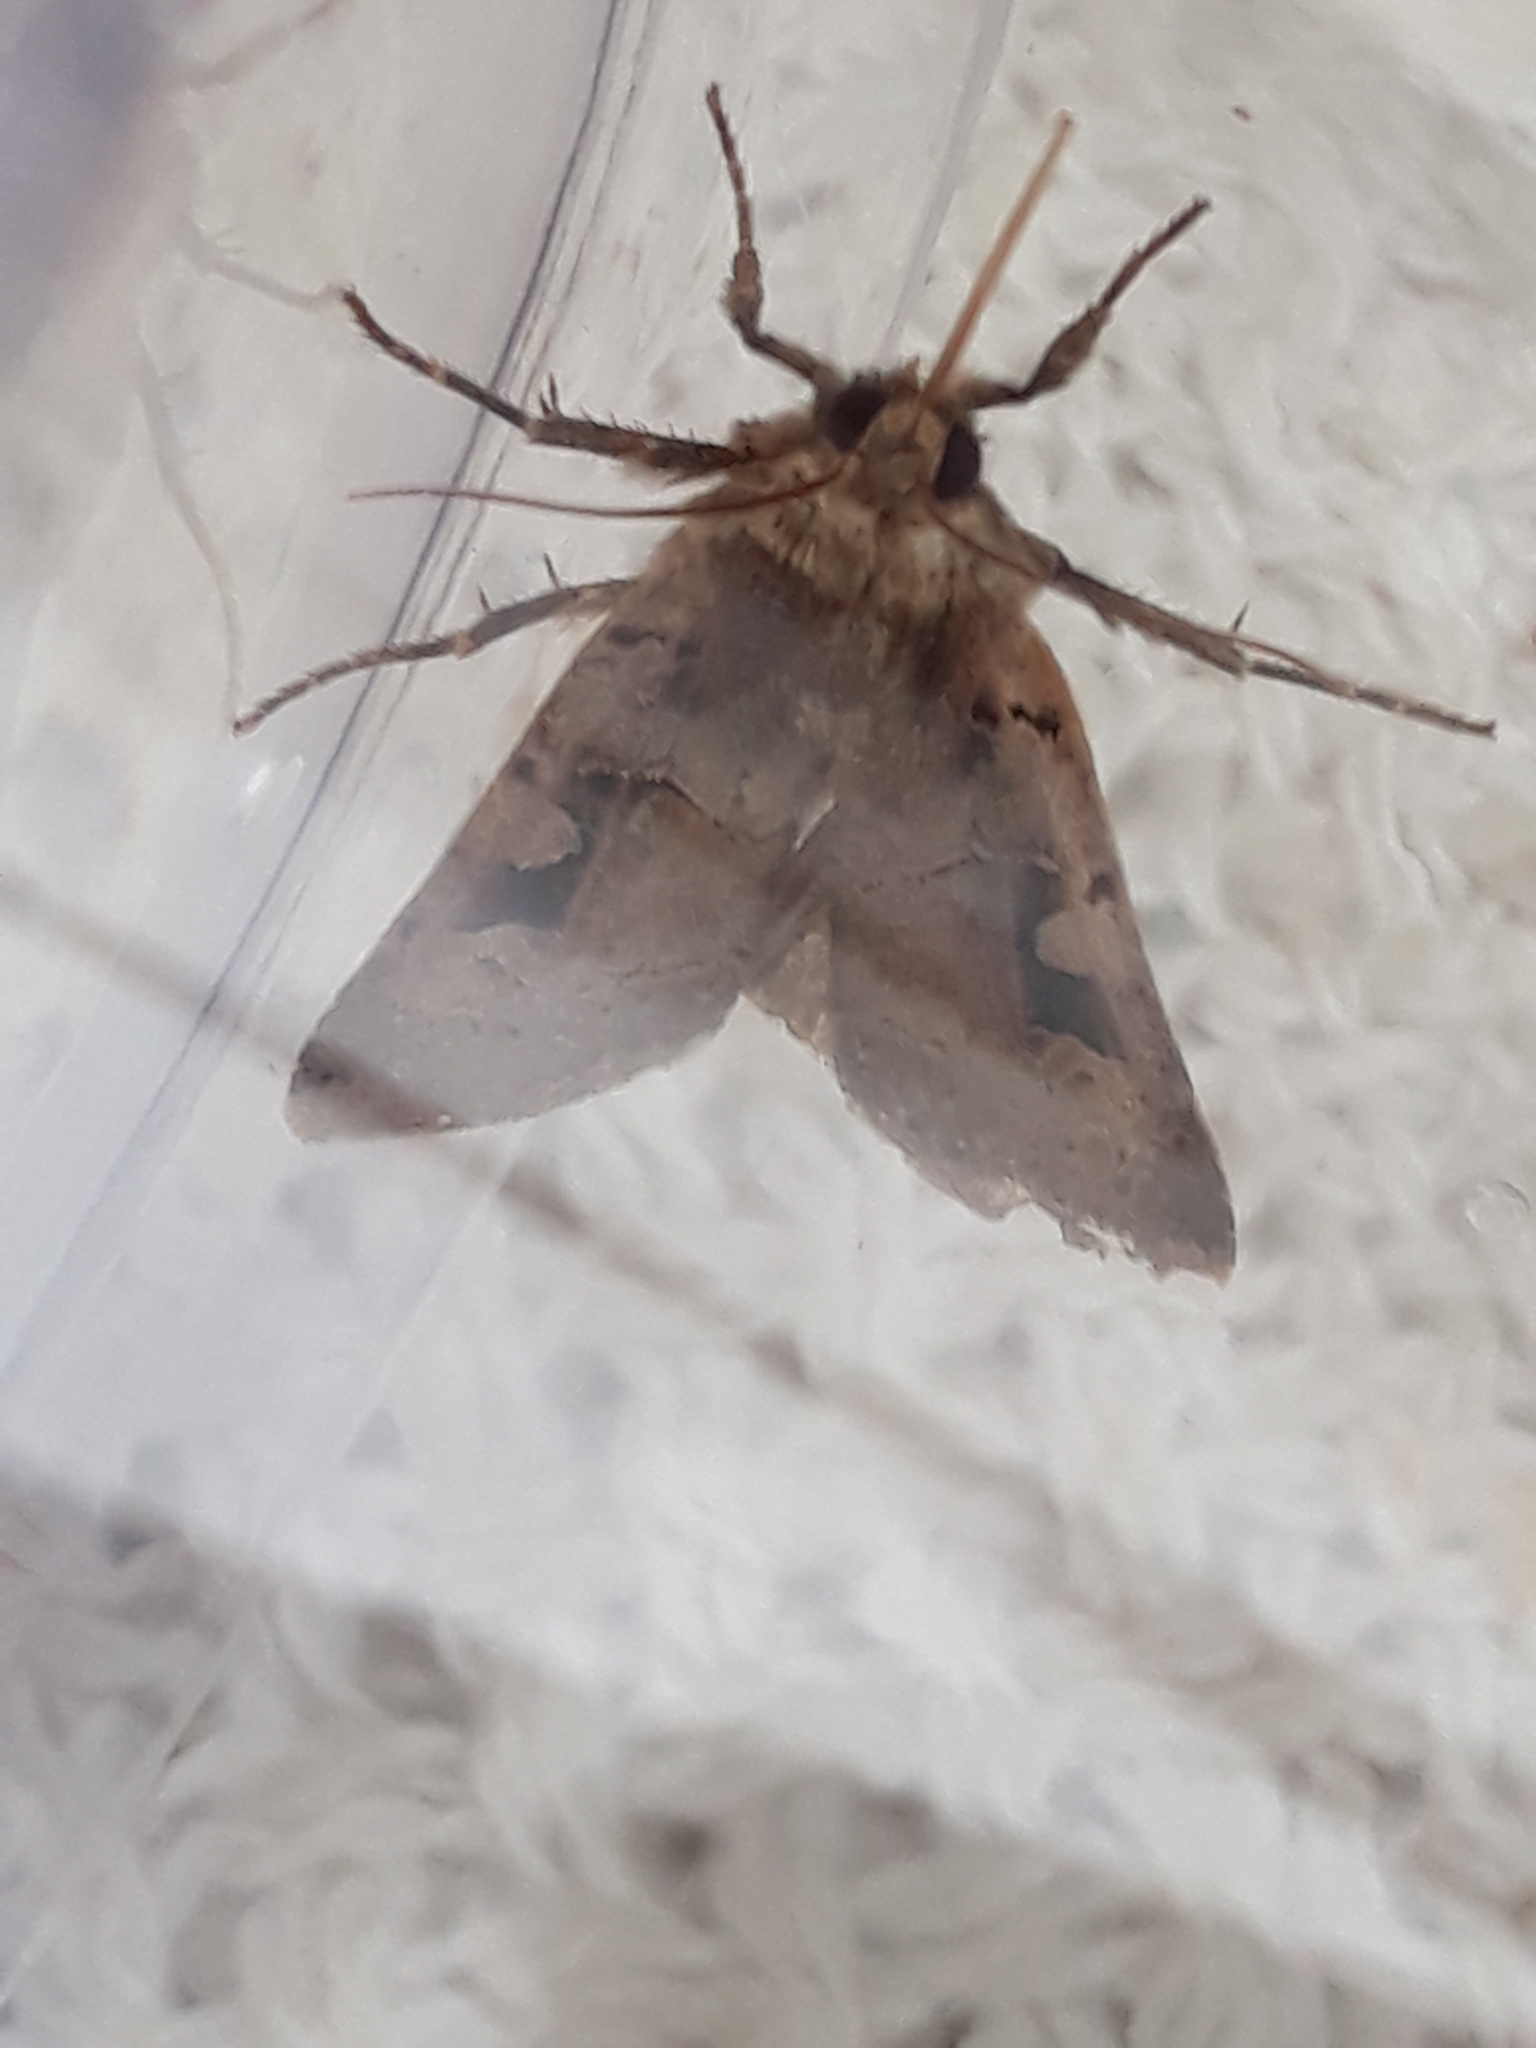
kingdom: Animalia
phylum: Arthropoda
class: Insecta
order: Lepidoptera
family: Noctuidae
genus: Xestia
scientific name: Xestia triangulum
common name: Double square-spot
